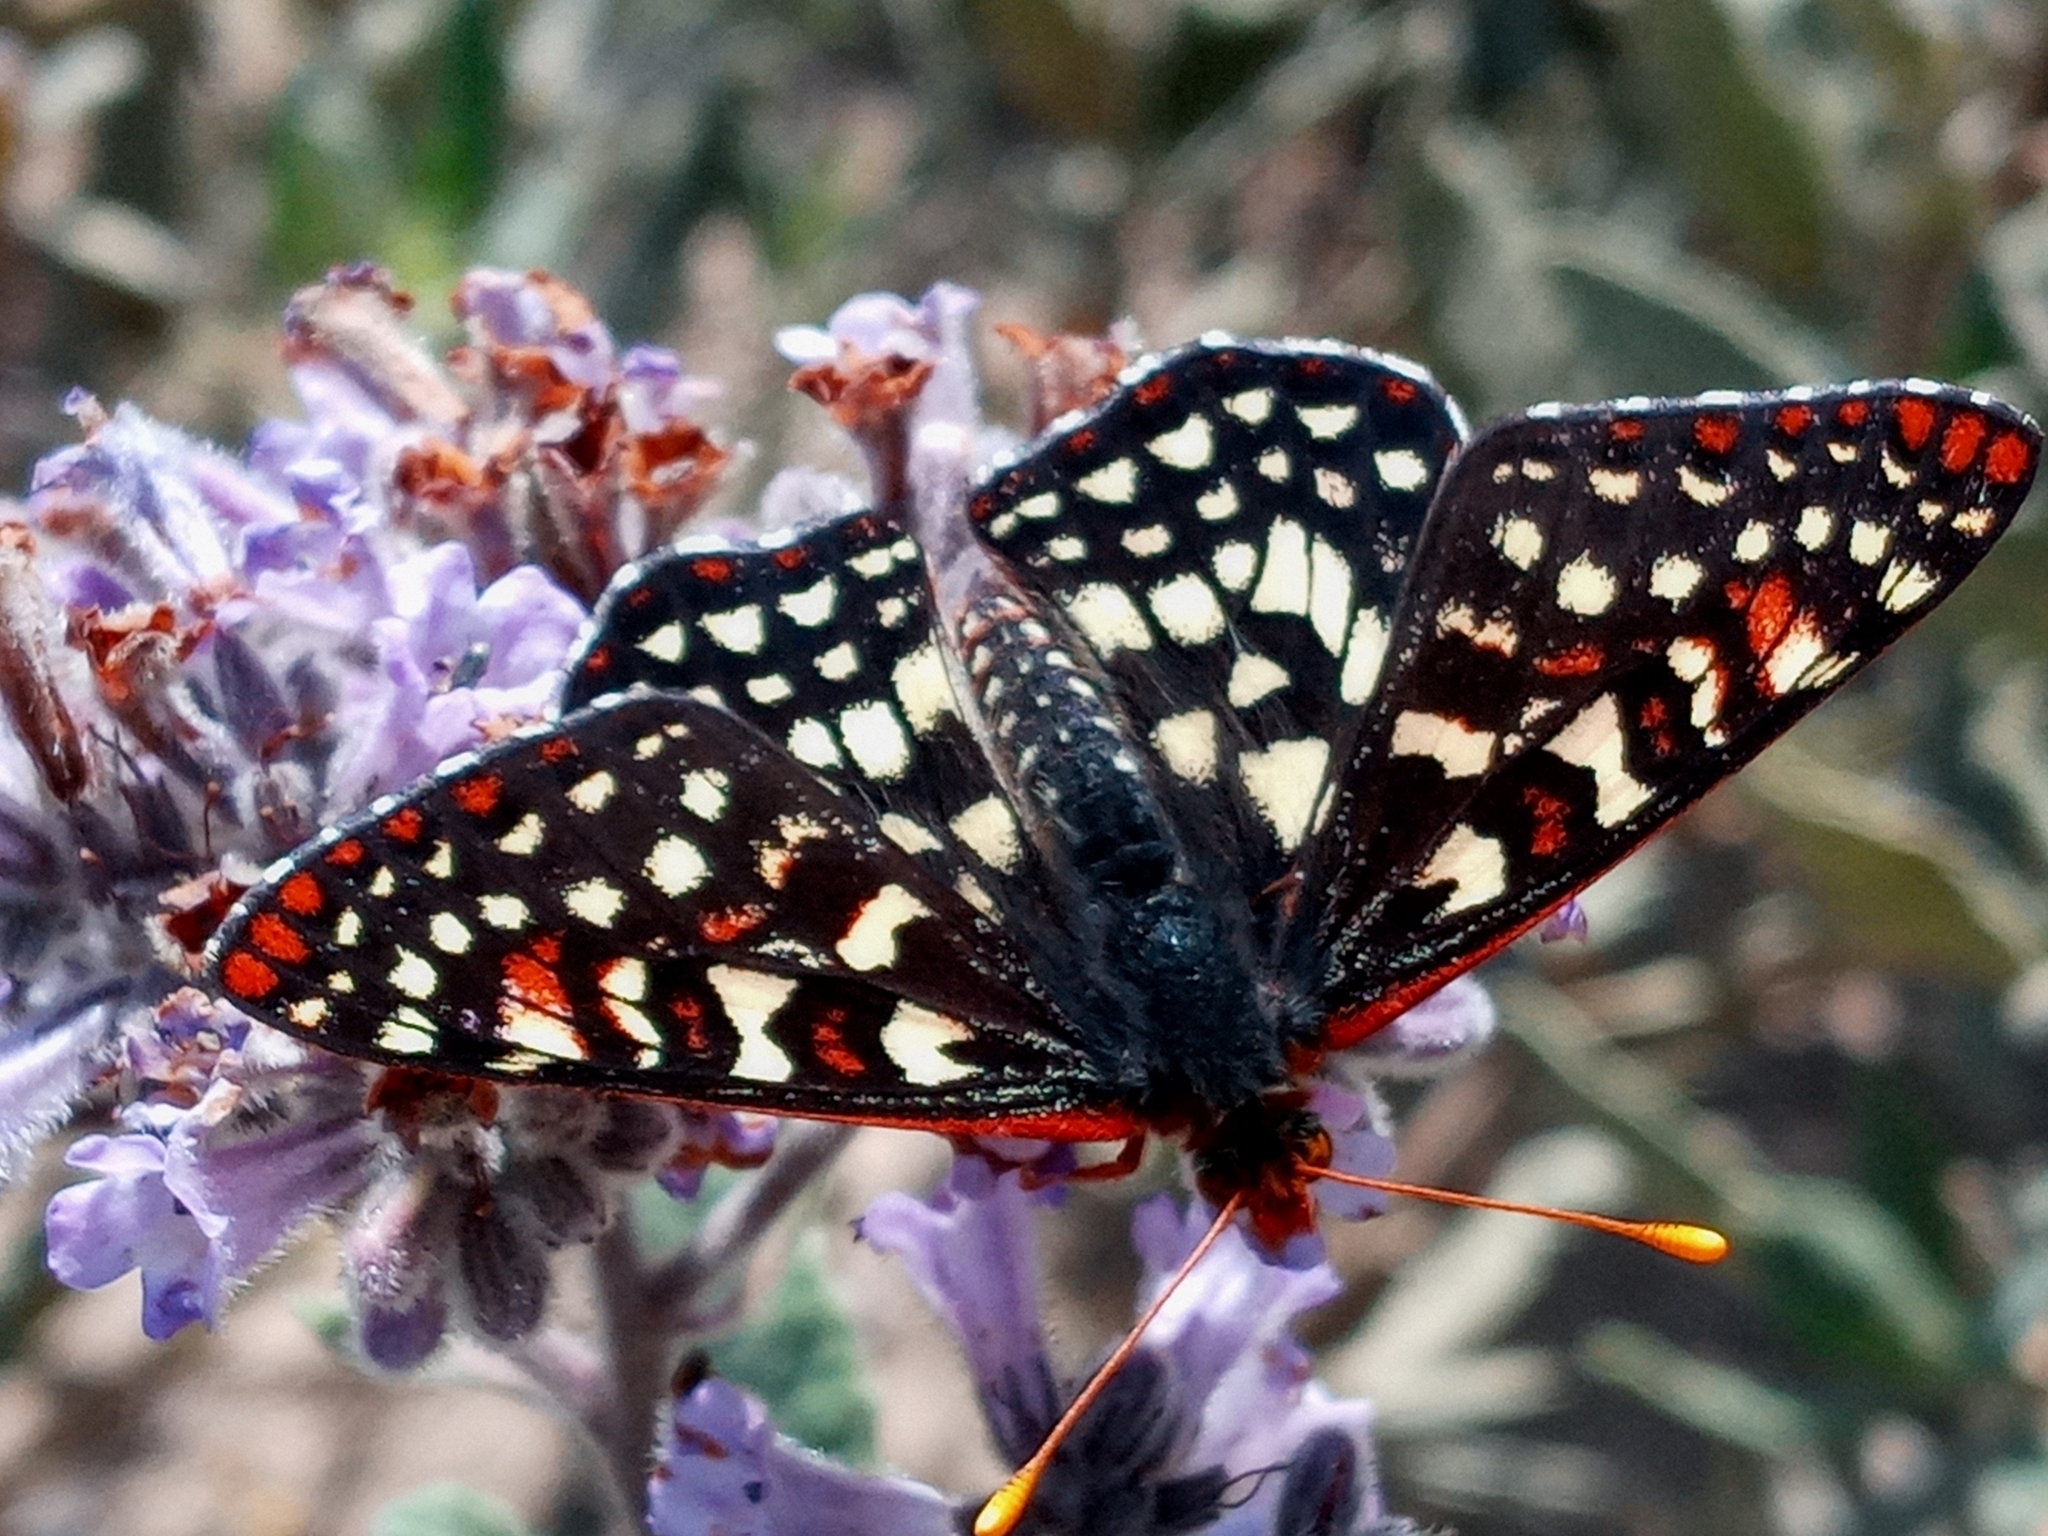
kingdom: Animalia
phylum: Arthropoda
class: Insecta
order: Lepidoptera
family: Nymphalidae
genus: Occidryas
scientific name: Occidryas chalcedona
